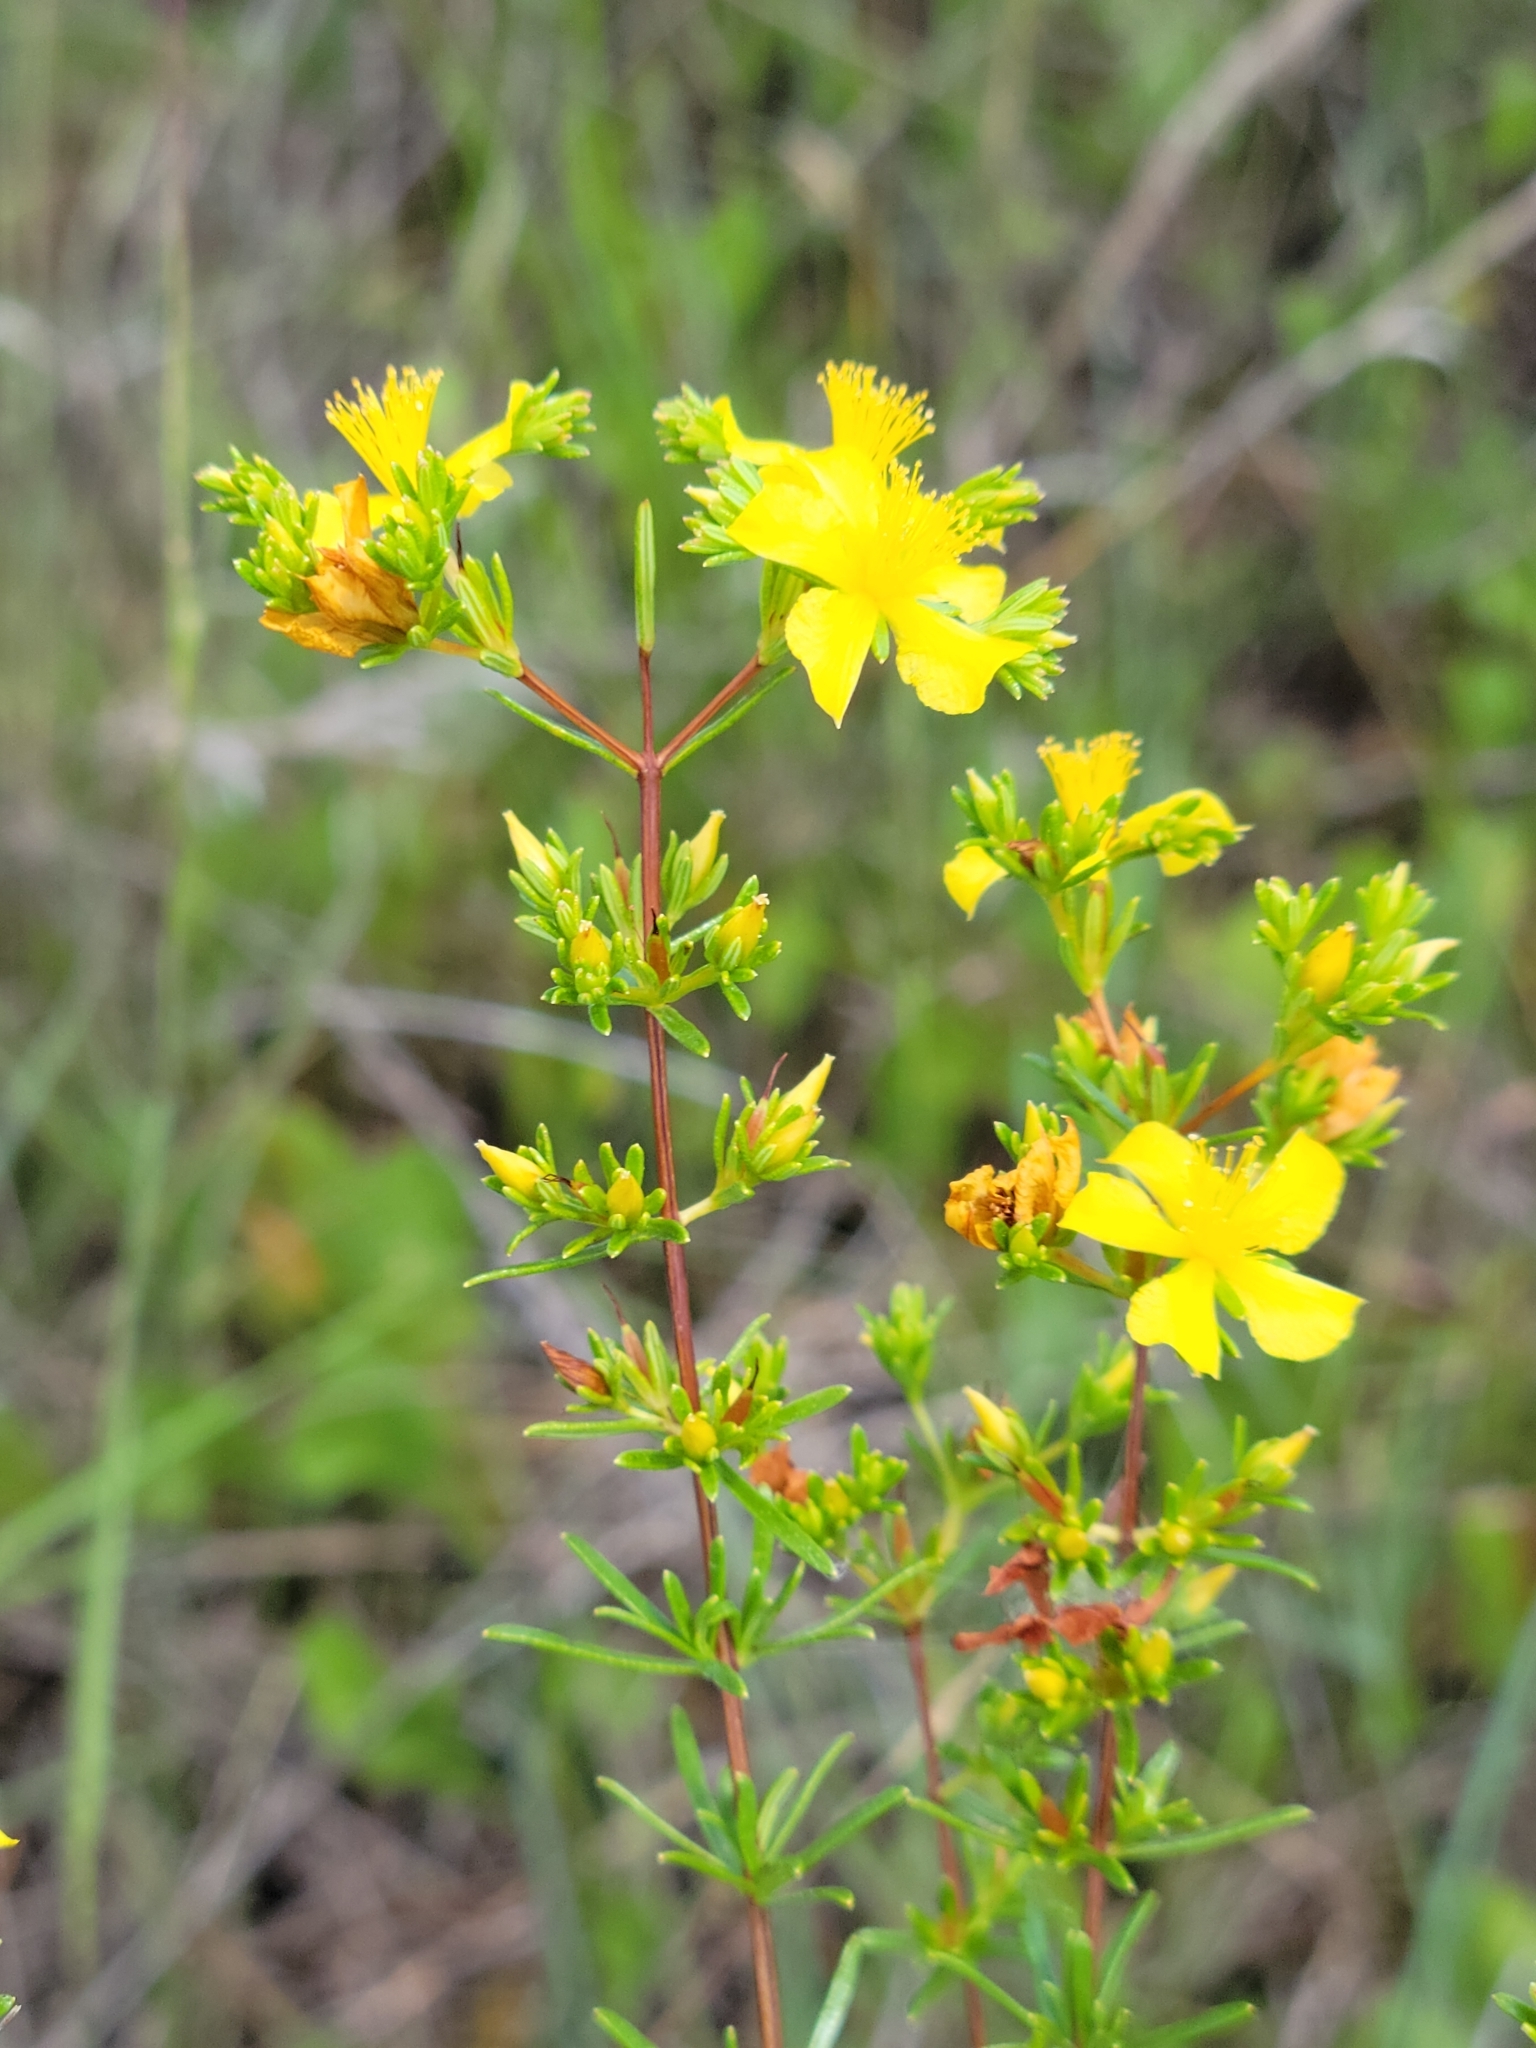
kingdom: Plantae
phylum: Tracheophyta
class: Magnoliopsida
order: Malpighiales
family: Hypericaceae
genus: Hypericum
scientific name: Hypericum limosum
